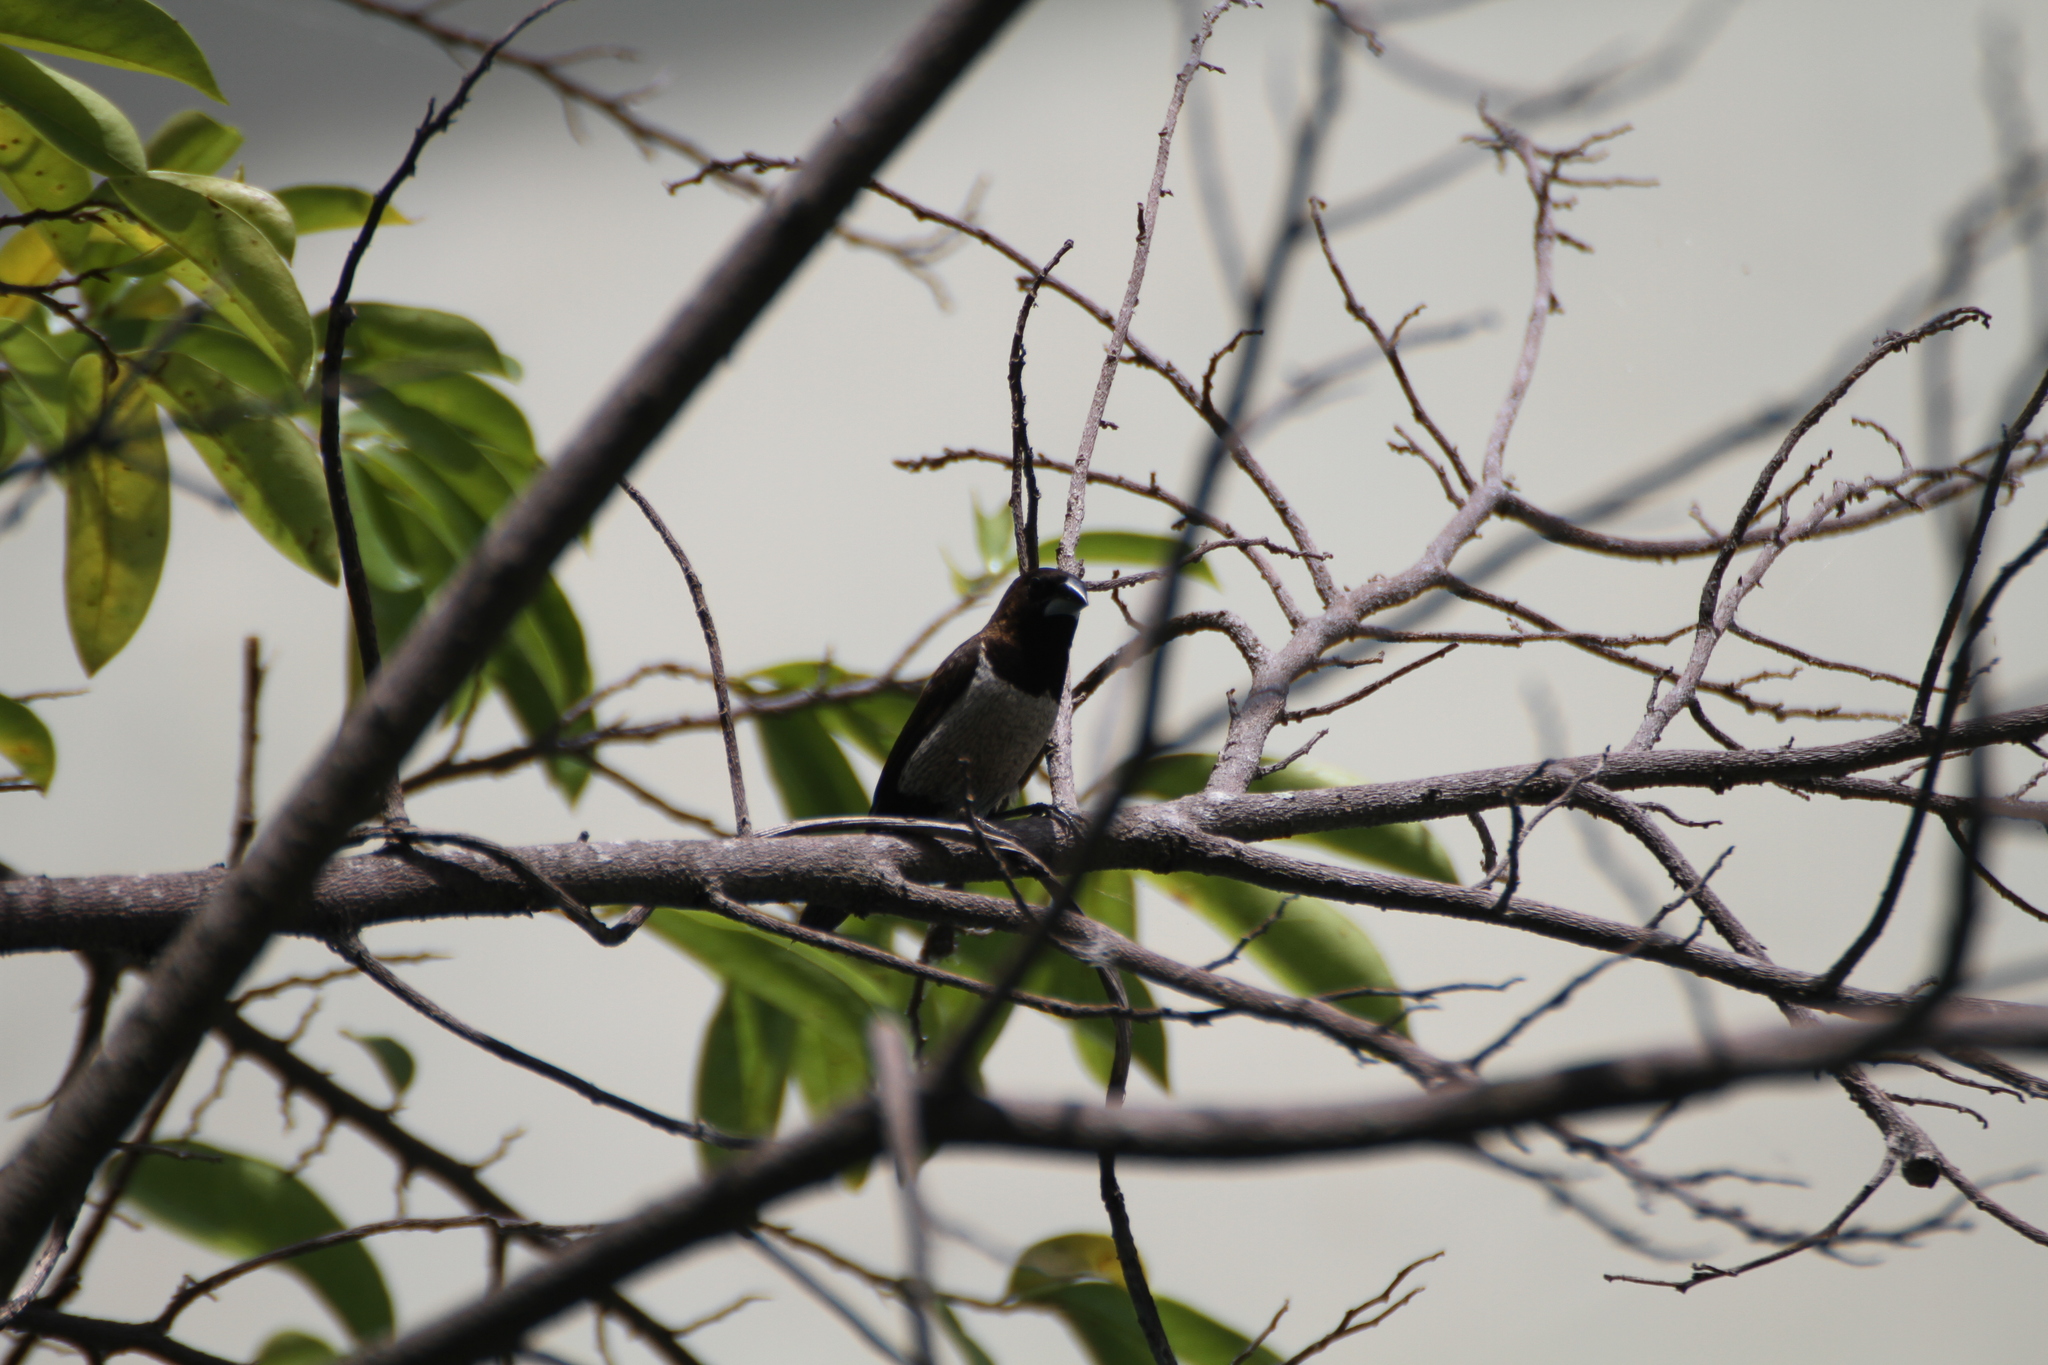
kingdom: Animalia
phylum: Chordata
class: Aves
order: Passeriformes
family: Estrildidae
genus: Lonchura
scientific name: Lonchura leucogastroides
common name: Javan munia
